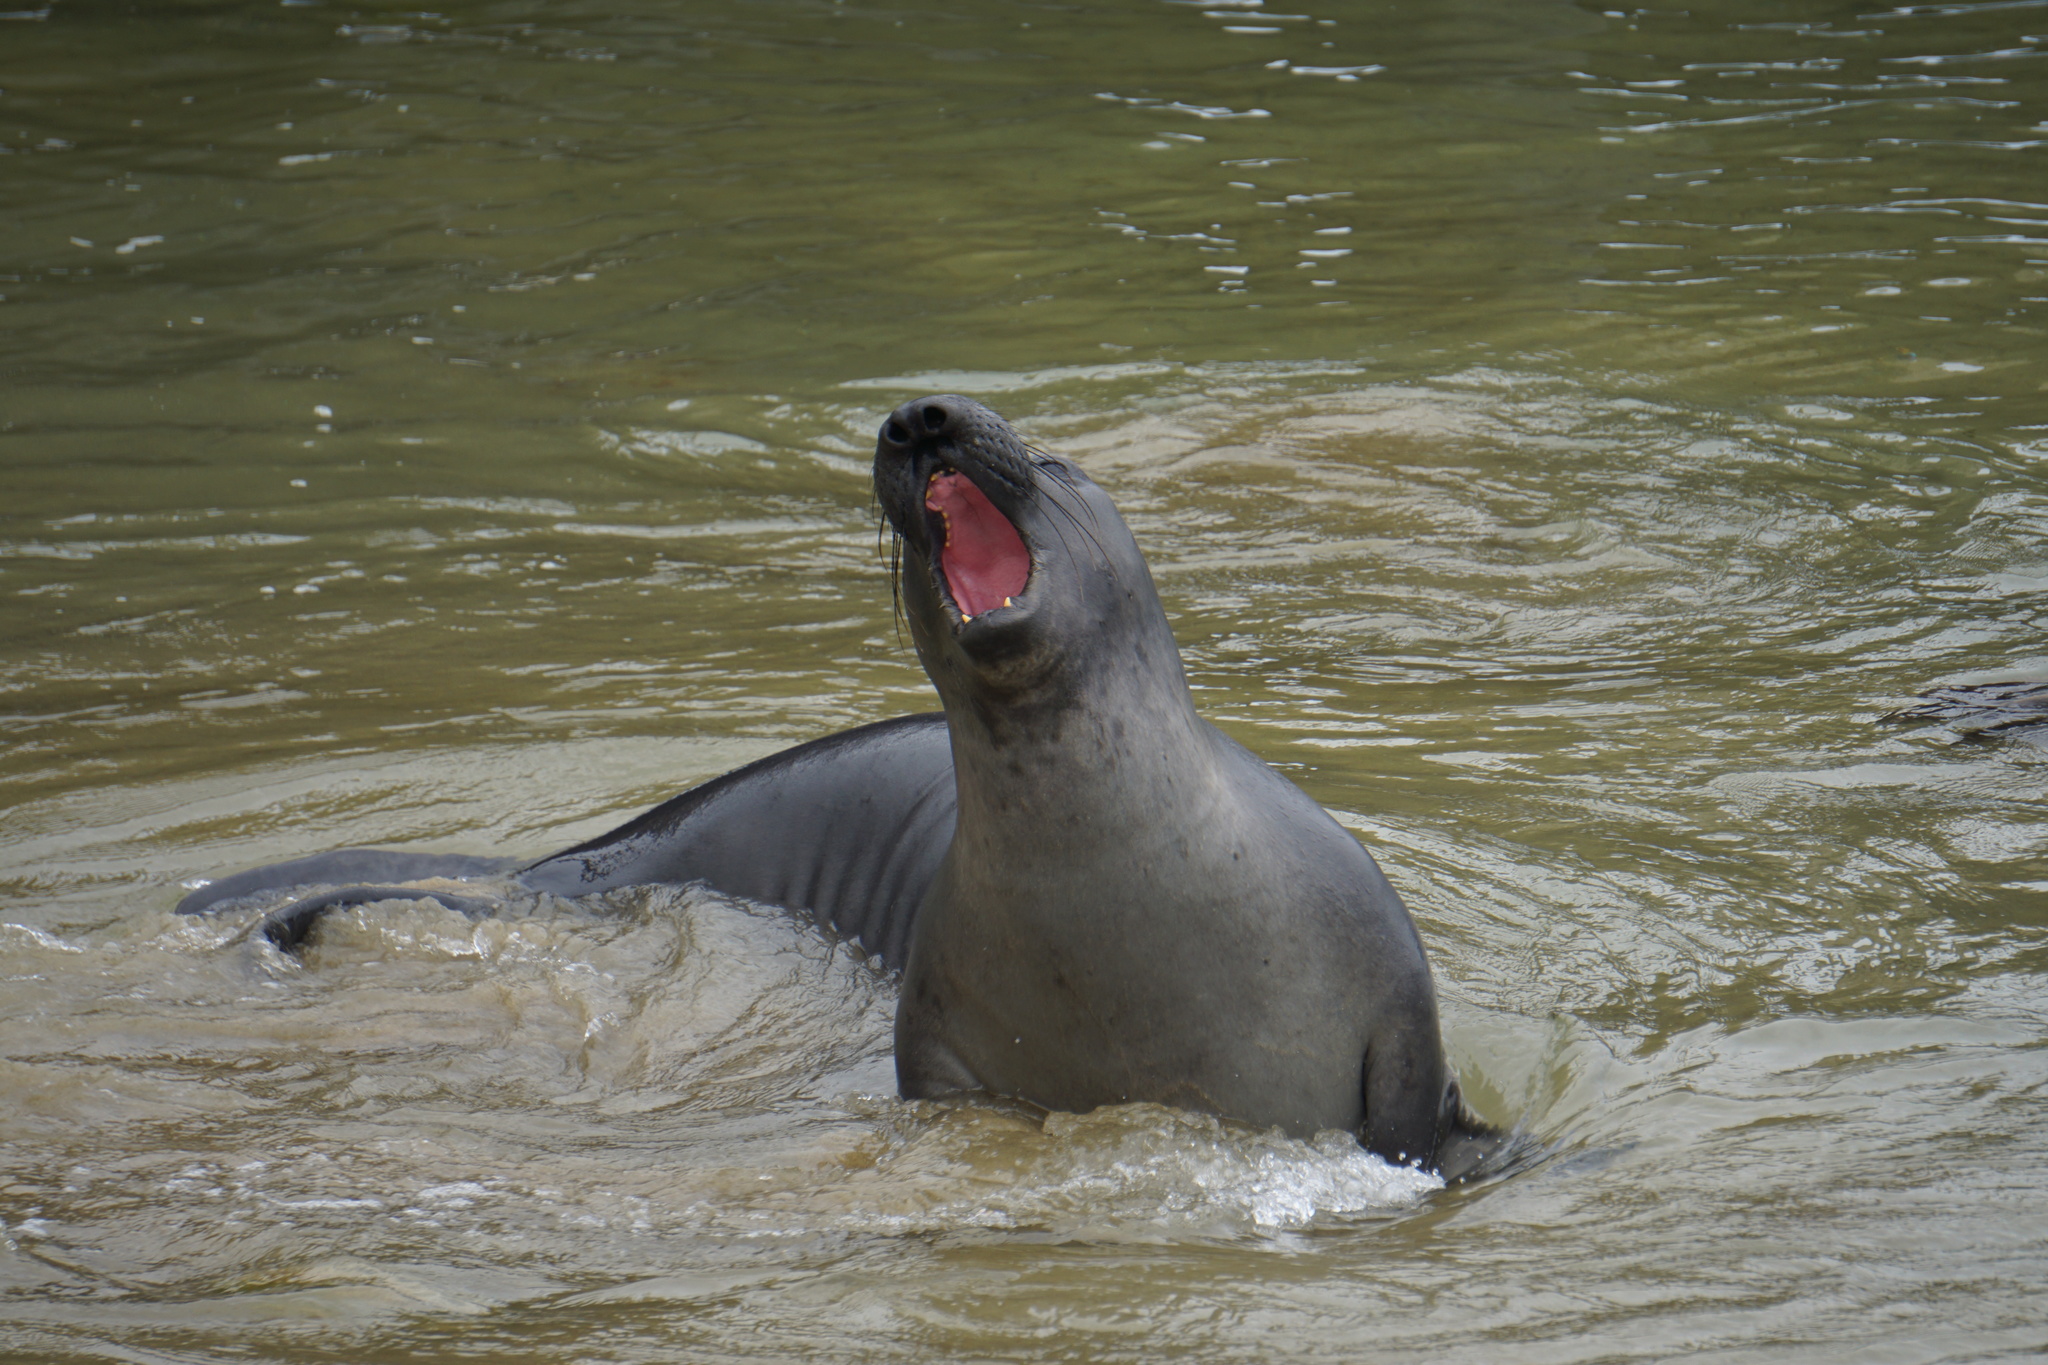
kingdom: Animalia
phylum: Chordata
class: Mammalia
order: Carnivora
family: Phocidae
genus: Mirounga
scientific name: Mirounga angustirostris
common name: Northern elephant seal
